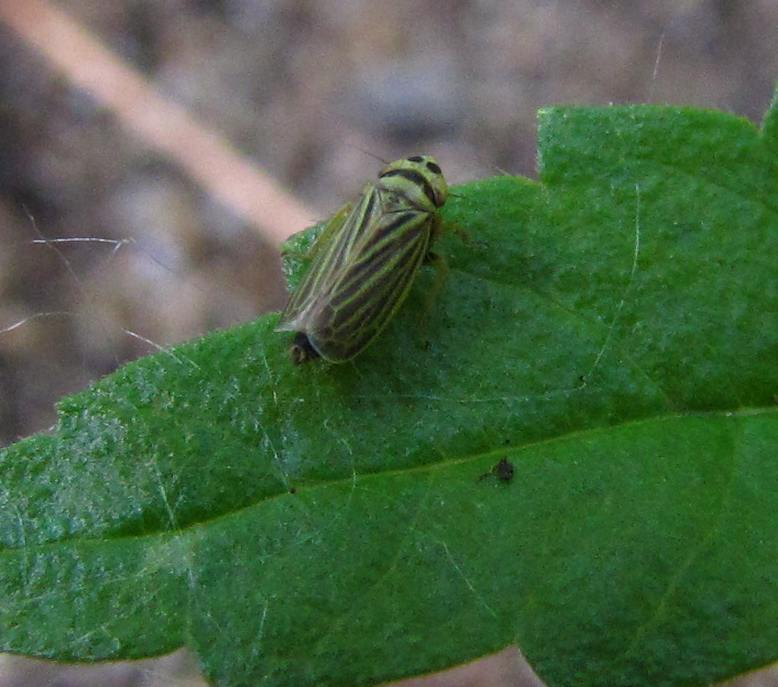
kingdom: Animalia
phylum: Arthropoda
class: Insecta
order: Hemiptera
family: Cicadellidae
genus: Amblysellus
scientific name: Amblysellus curtisii
